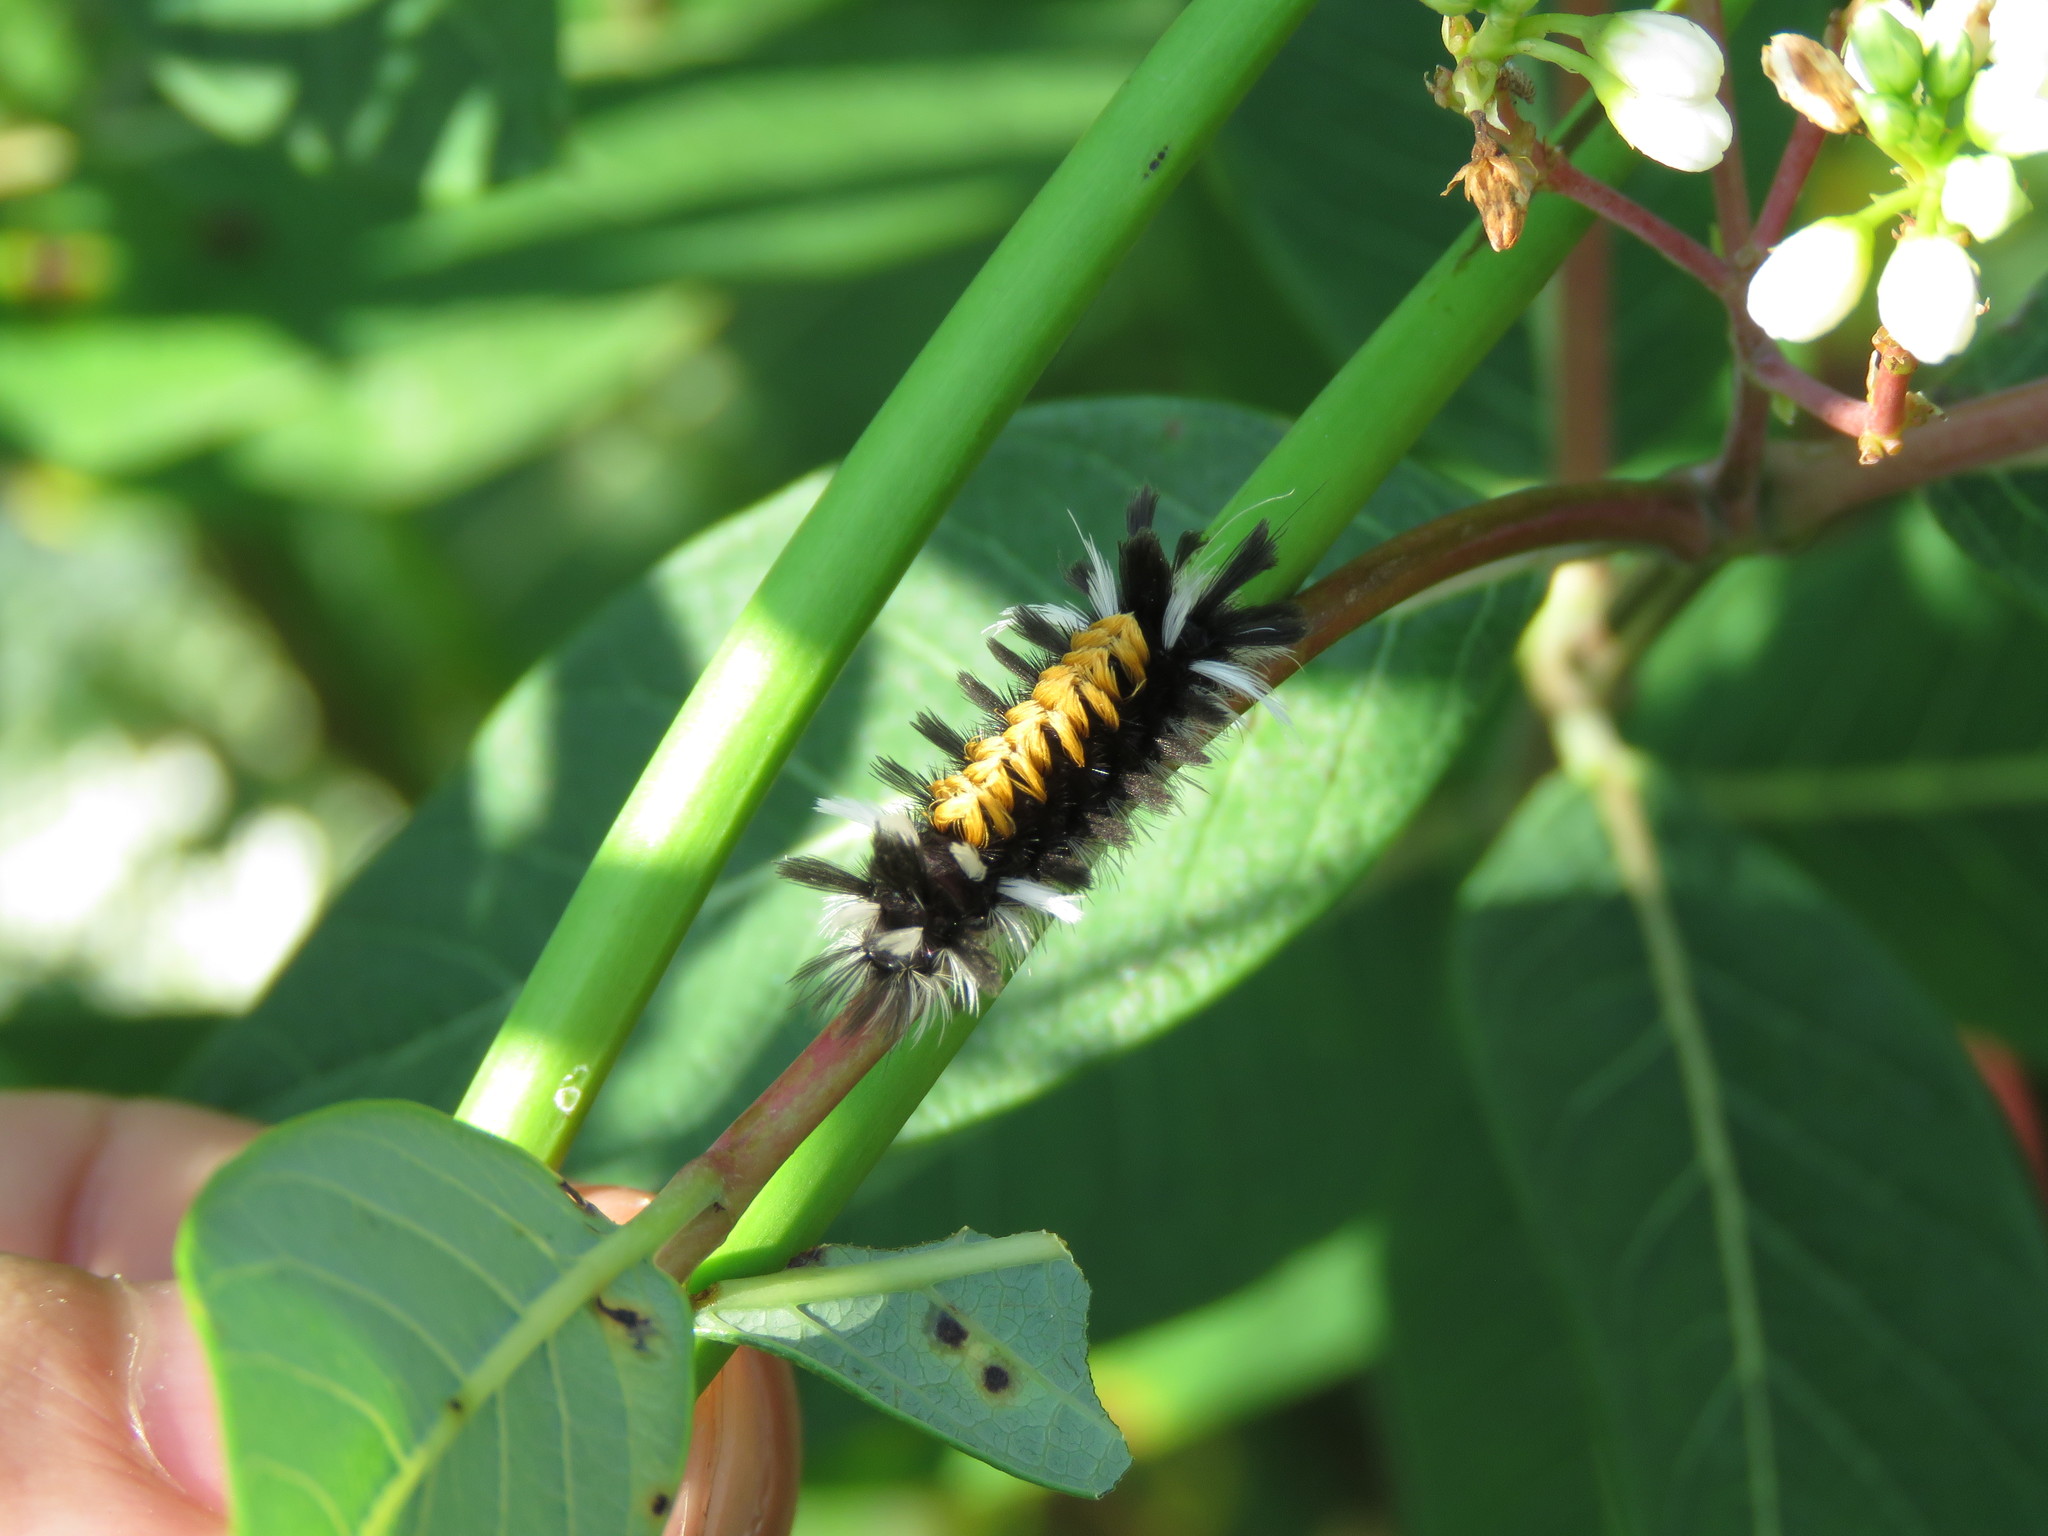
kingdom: Animalia
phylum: Arthropoda
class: Insecta
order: Lepidoptera
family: Erebidae
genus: Euchaetes
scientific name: Euchaetes egle
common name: Milkweed tussock moth
